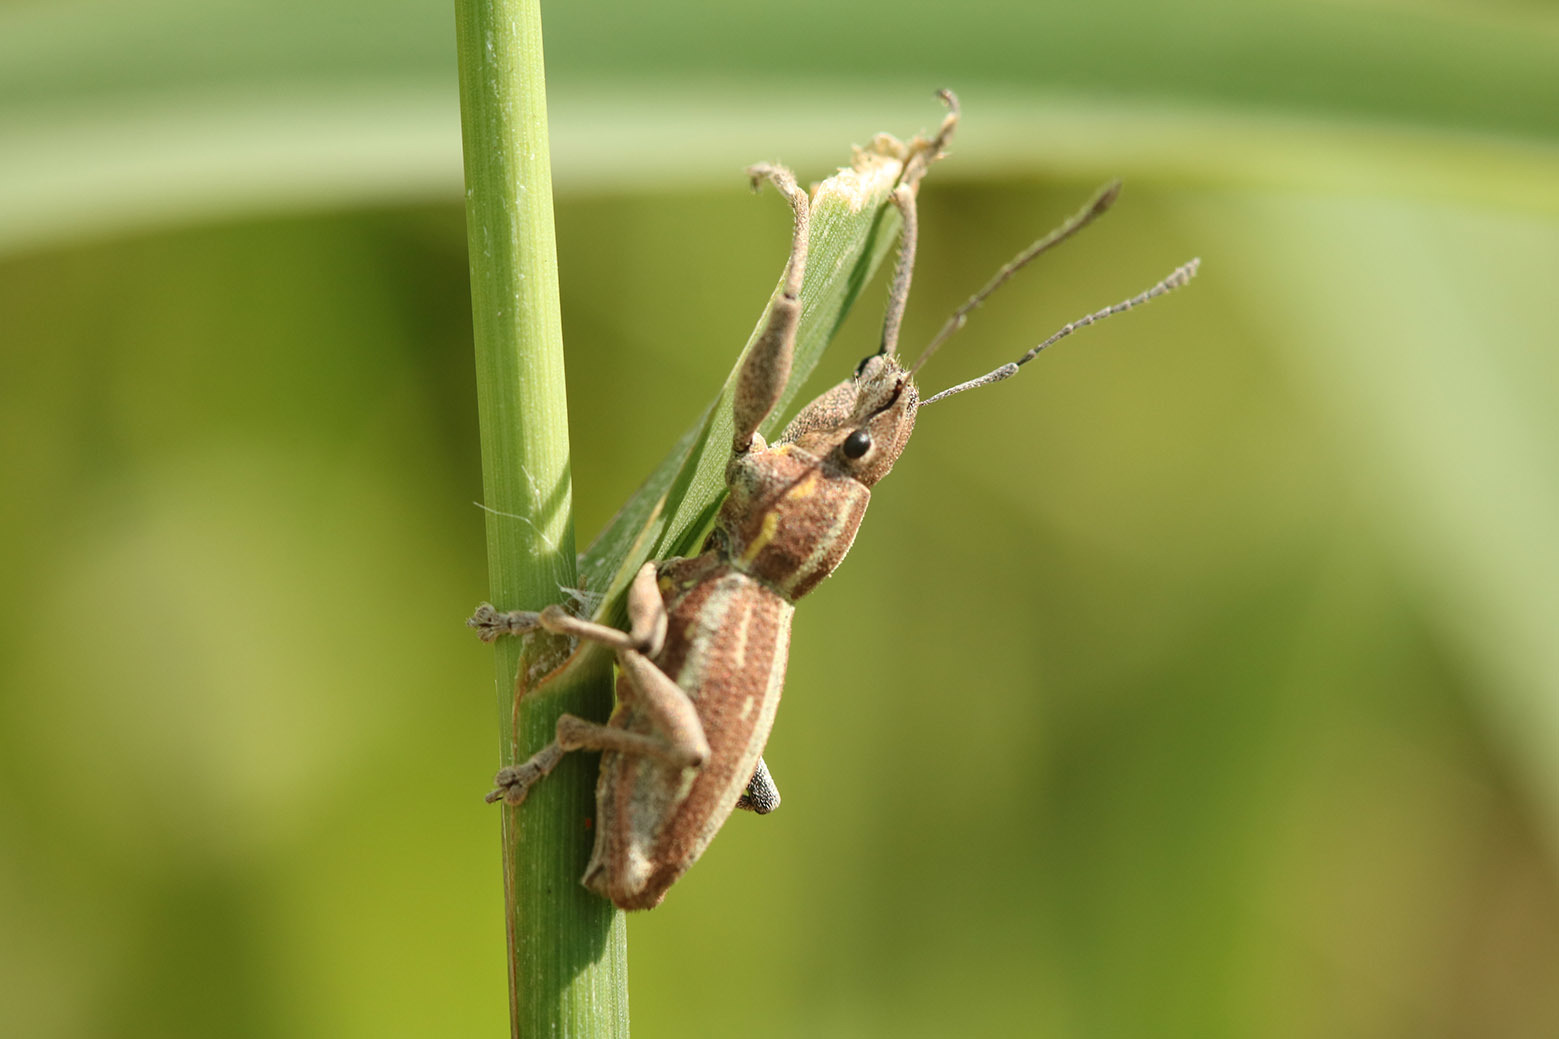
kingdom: Animalia
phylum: Arthropoda
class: Insecta
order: Coleoptera
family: Curculionidae
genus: Naupactus
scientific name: Naupactus xanthographus
